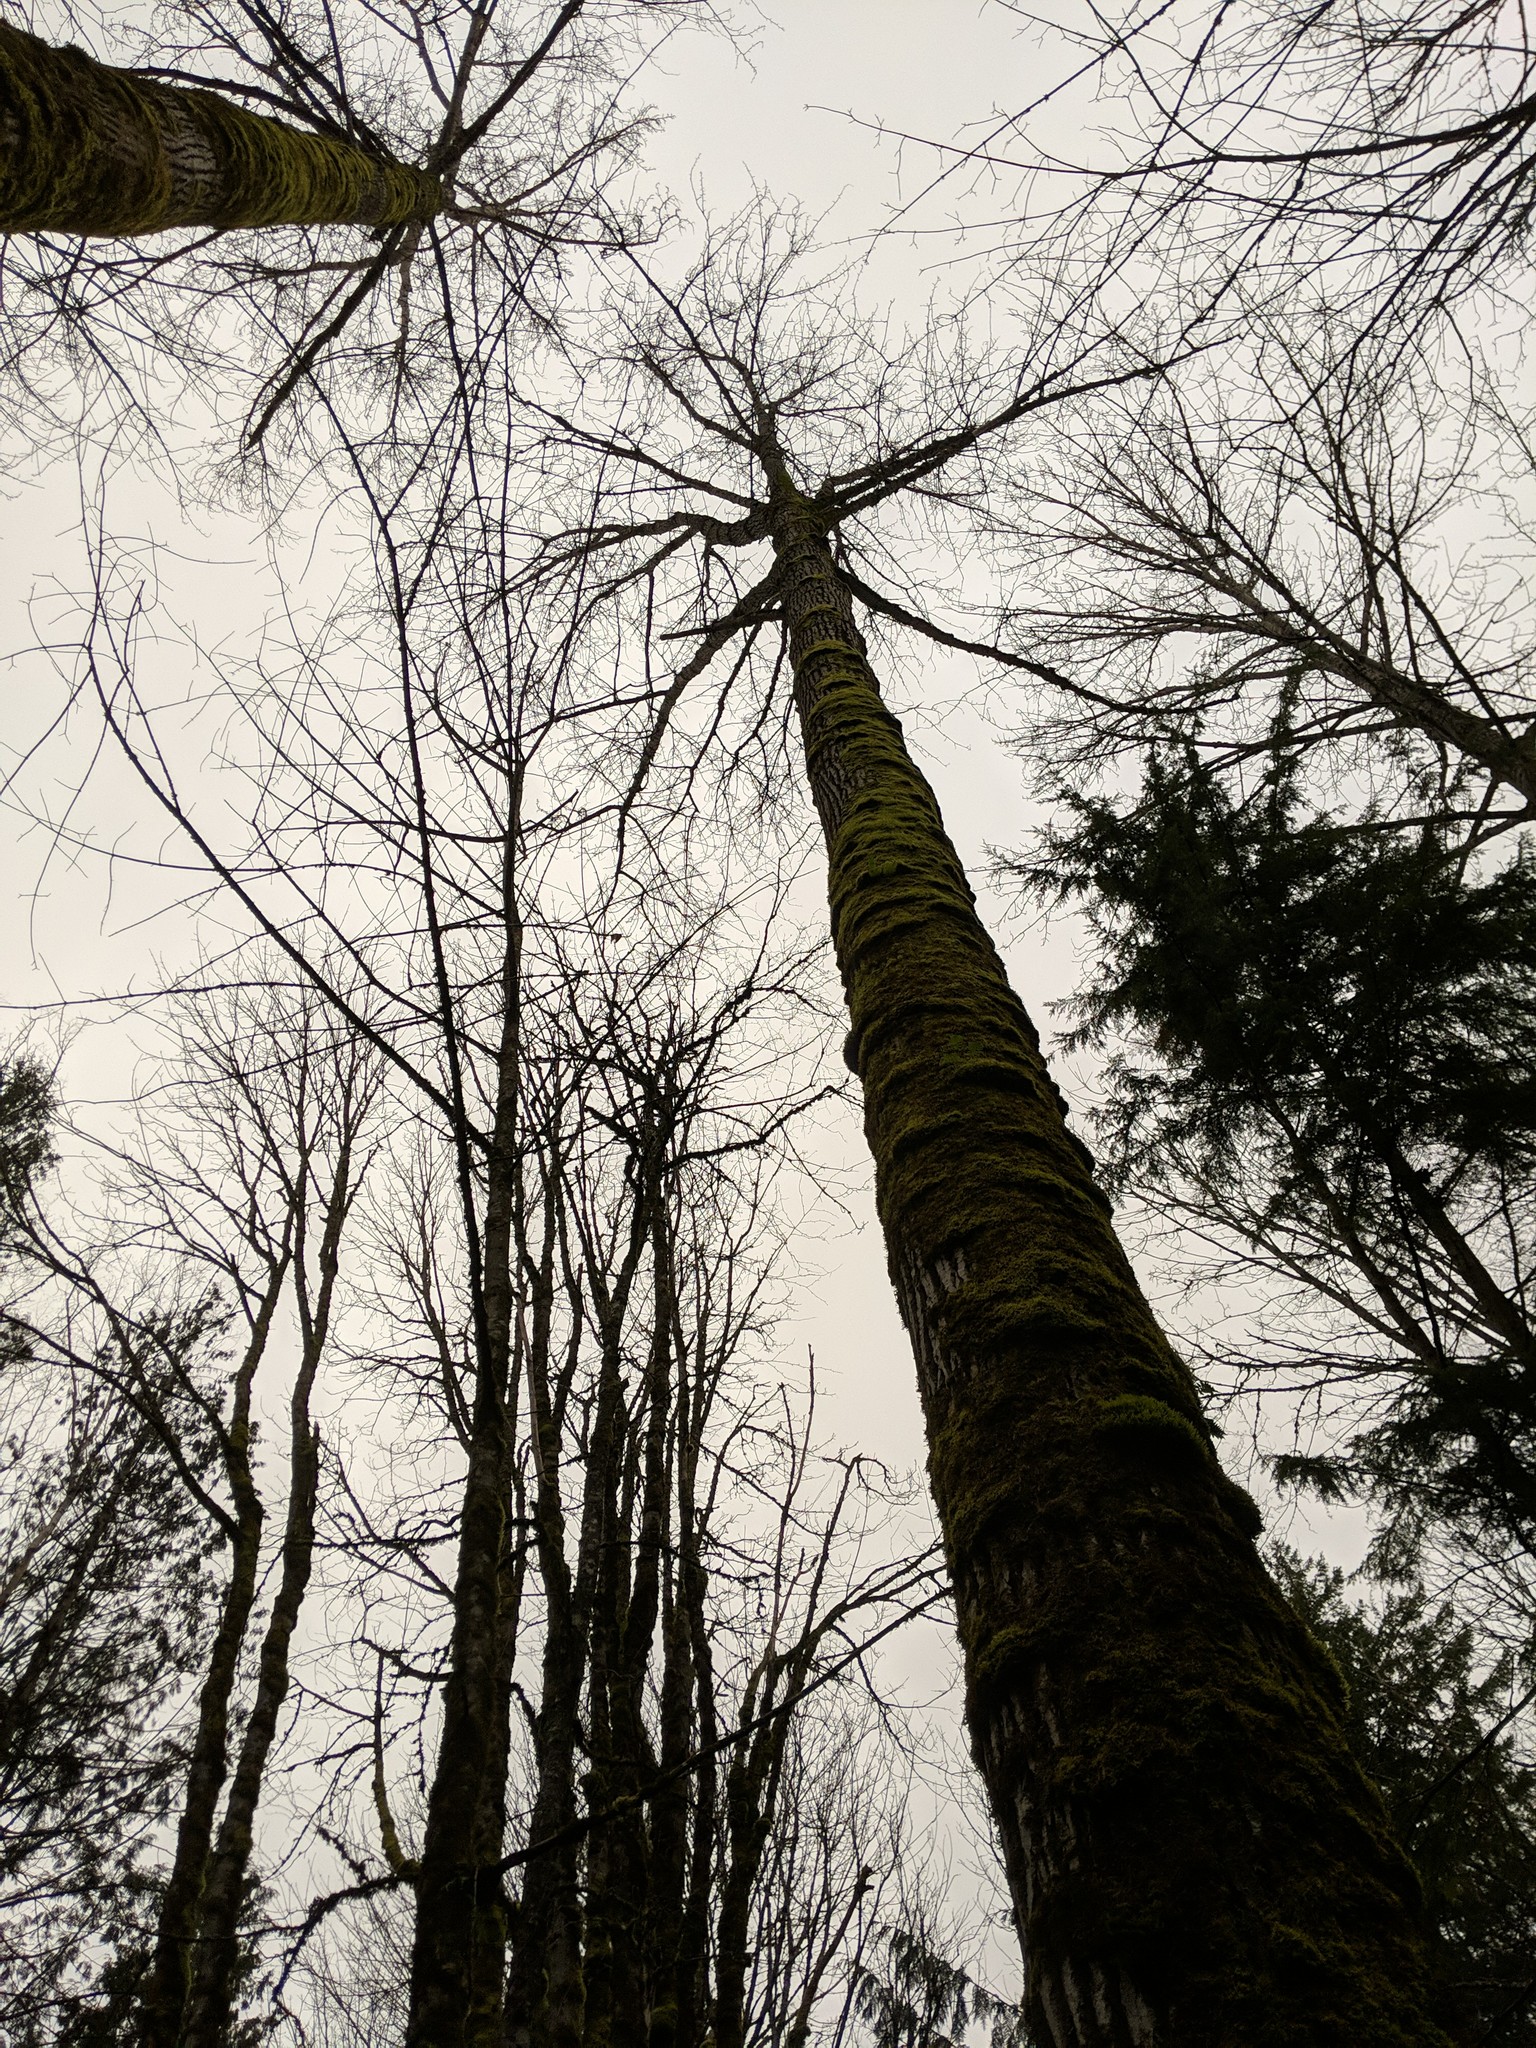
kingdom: Plantae
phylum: Tracheophyta
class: Magnoliopsida
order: Malpighiales
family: Salicaceae
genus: Populus
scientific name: Populus trichocarpa
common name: Black cottonwood
